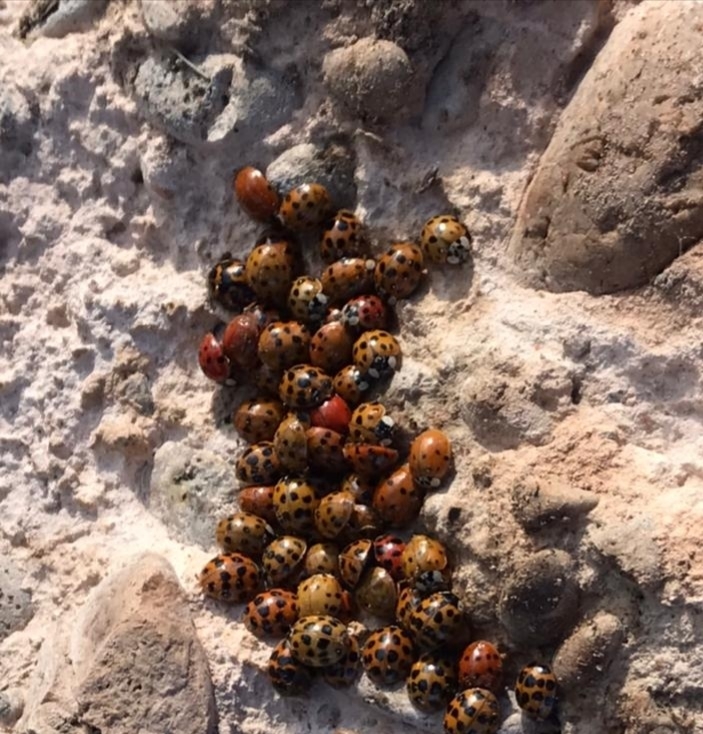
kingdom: Animalia
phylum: Arthropoda
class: Insecta
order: Coleoptera
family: Coccinellidae
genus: Harmonia
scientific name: Harmonia axyridis
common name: Harlequin ladybird
